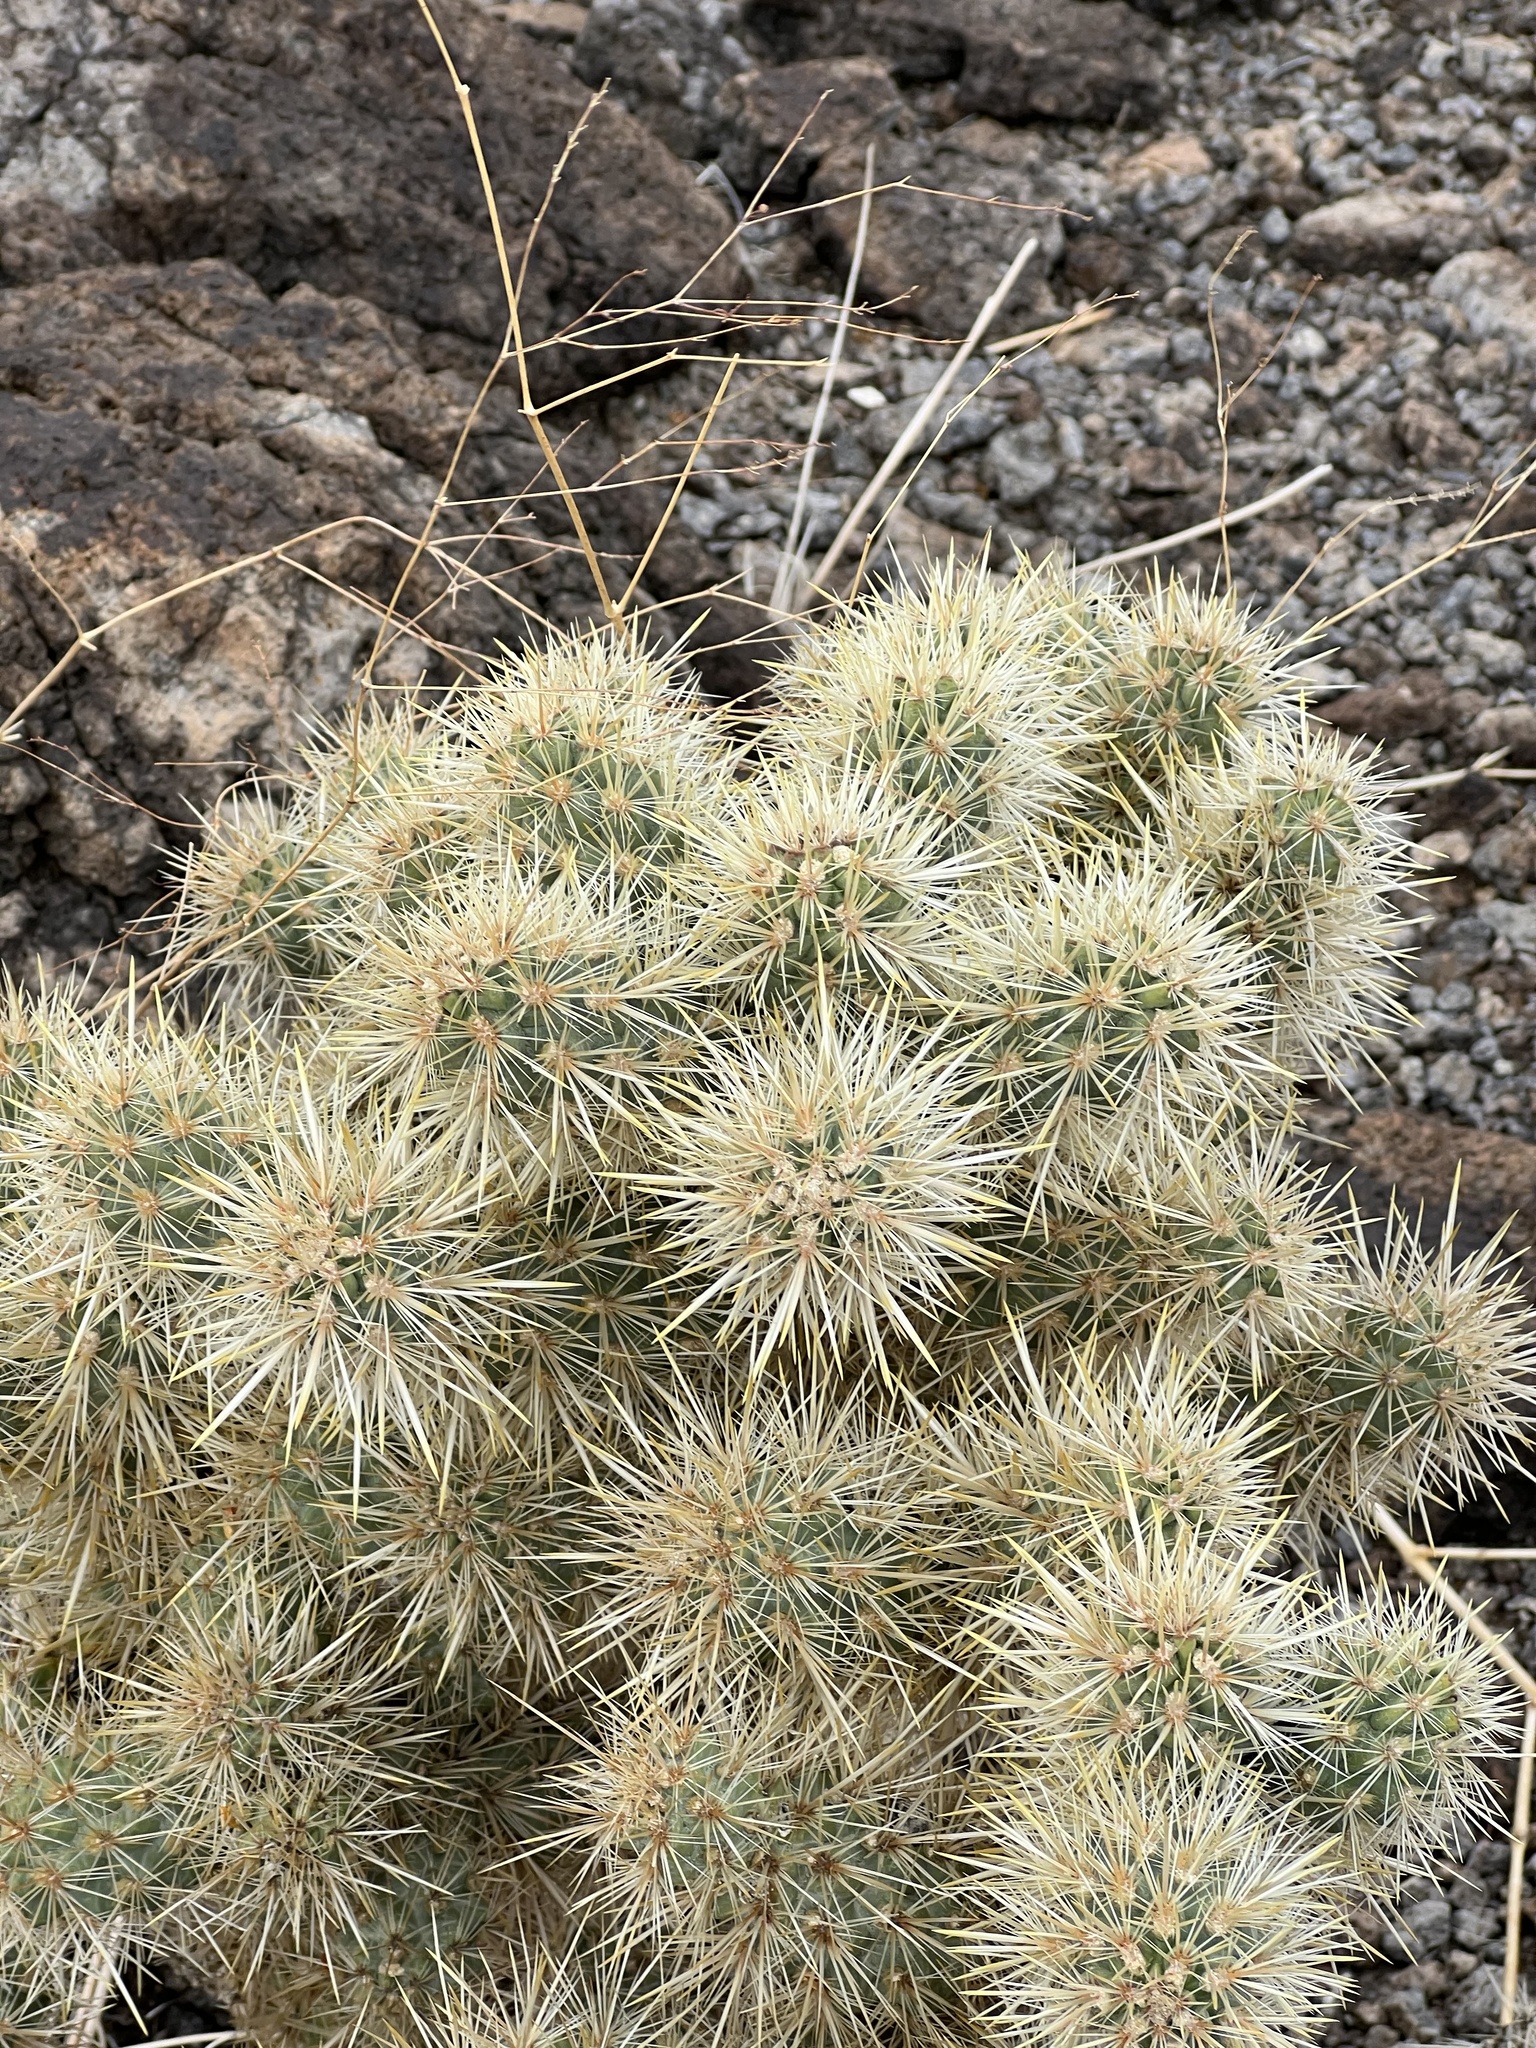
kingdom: Plantae
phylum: Tracheophyta
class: Magnoliopsida
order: Caryophyllales
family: Cactaceae
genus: Cylindropuntia
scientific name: Cylindropuntia echinocarpa
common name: Ground cholla
